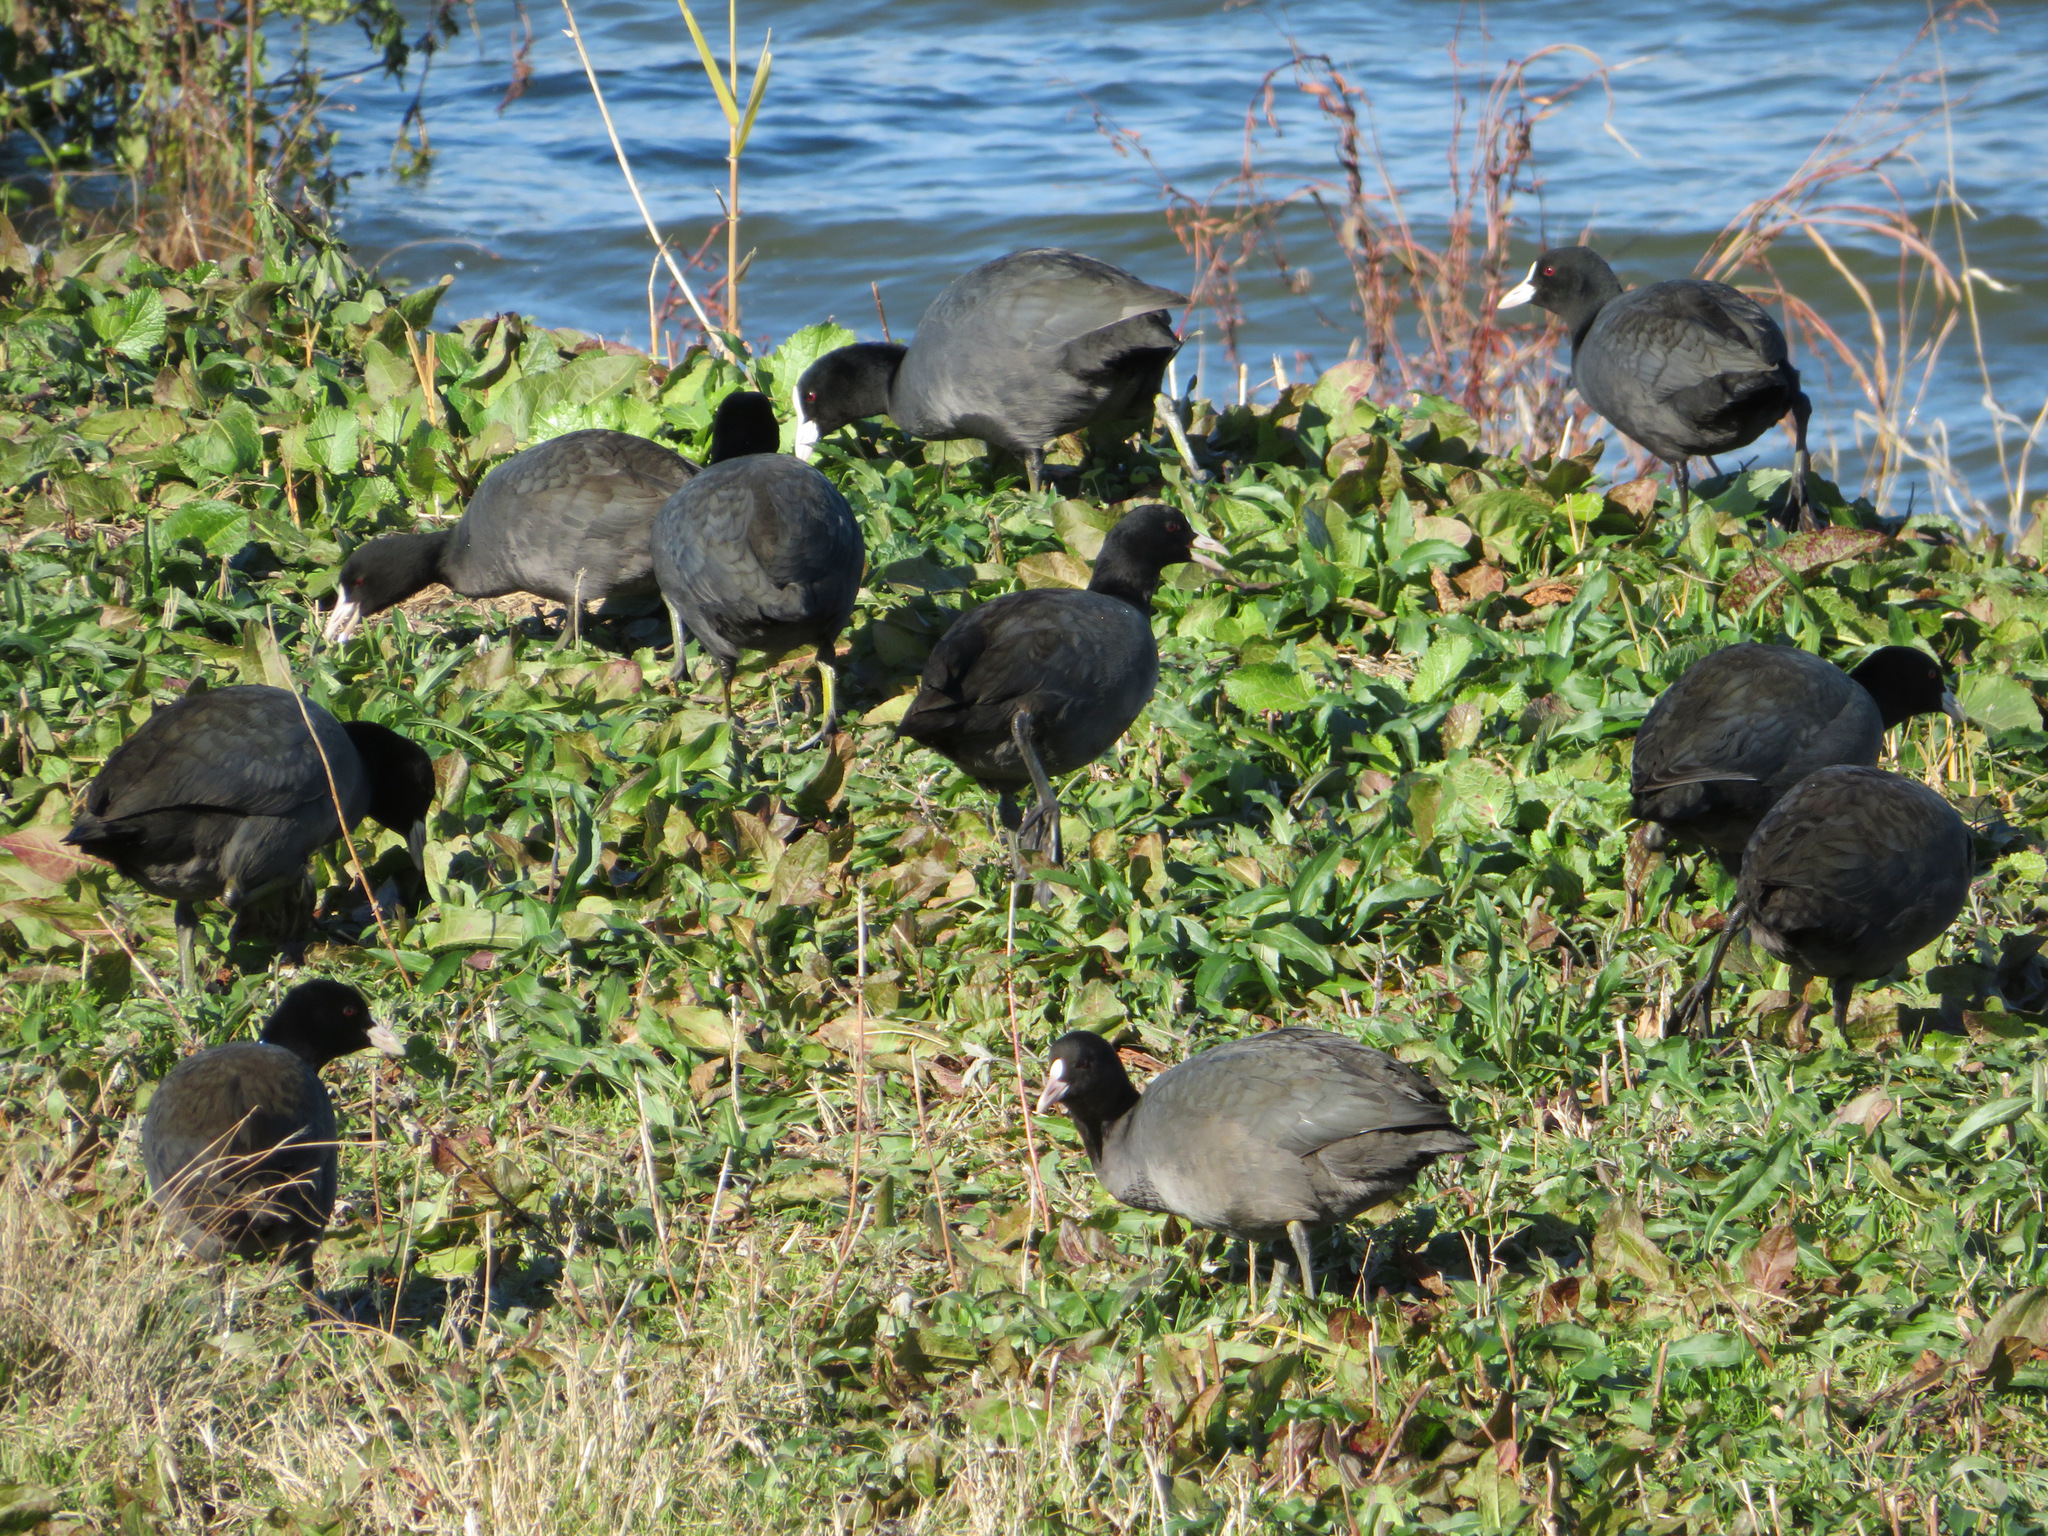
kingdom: Animalia
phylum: Chordata
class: Aves
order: Gruiformes
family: Rallidae
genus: Fulica
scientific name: Fulica atra
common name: Eurasian coot
